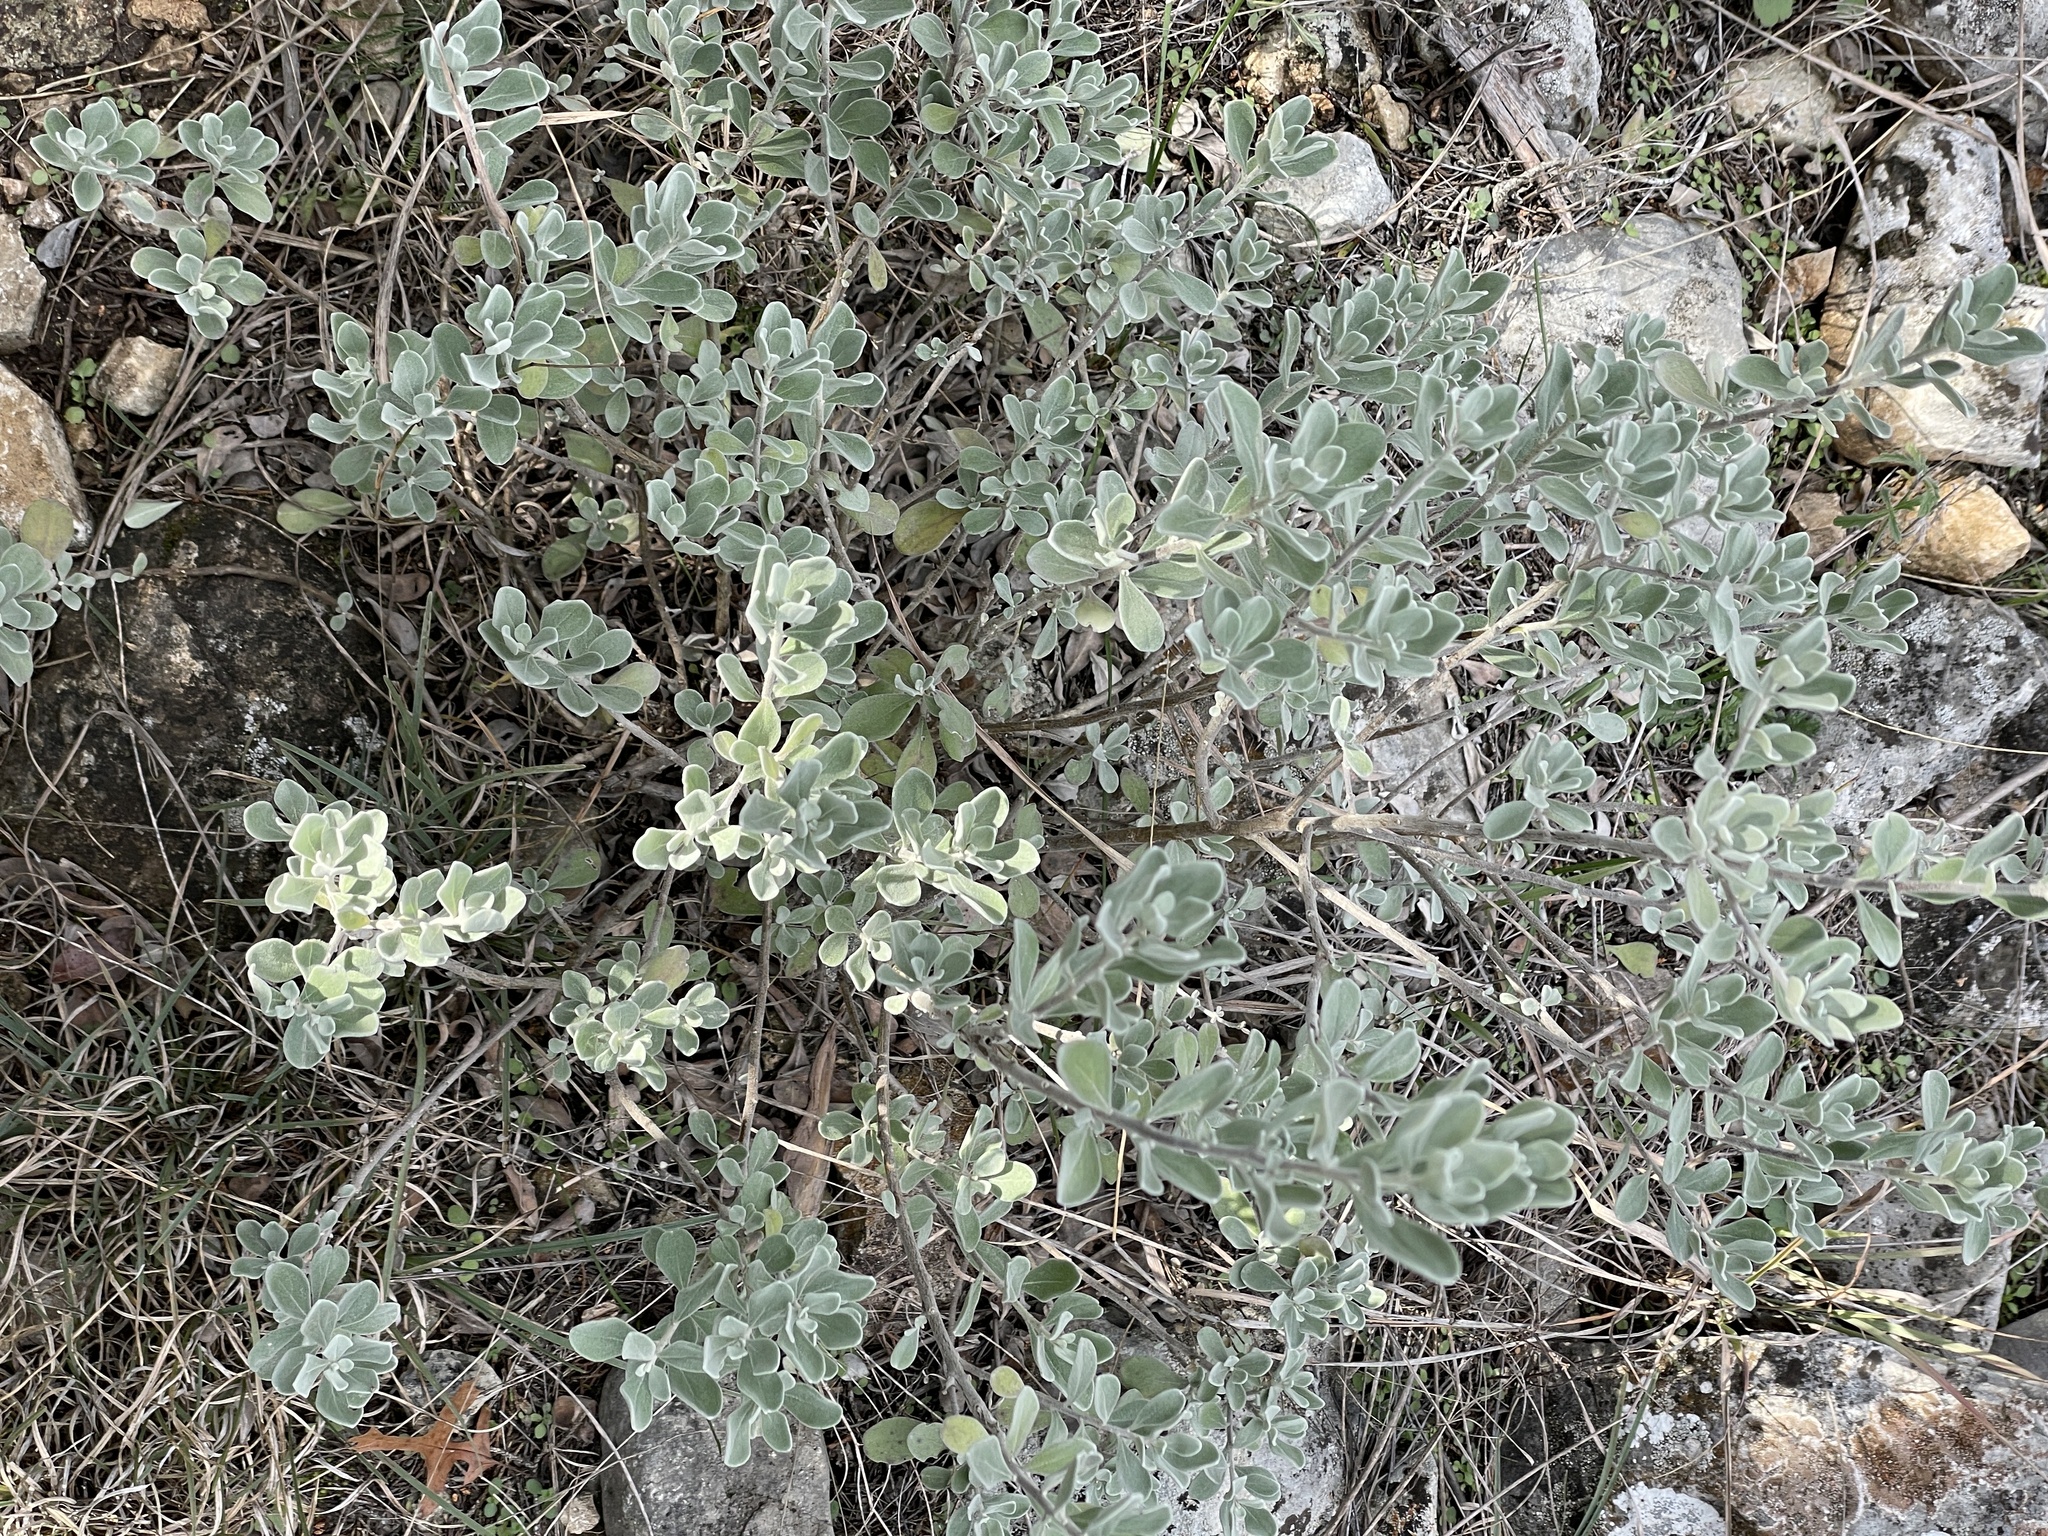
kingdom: Plantae
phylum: Tracheophyta
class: Magnoliopsida
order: Lamiales
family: Scrophulariaceae
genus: Leucophyllum
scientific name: Leucophyllum frutescens
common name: Texas silverleaf
